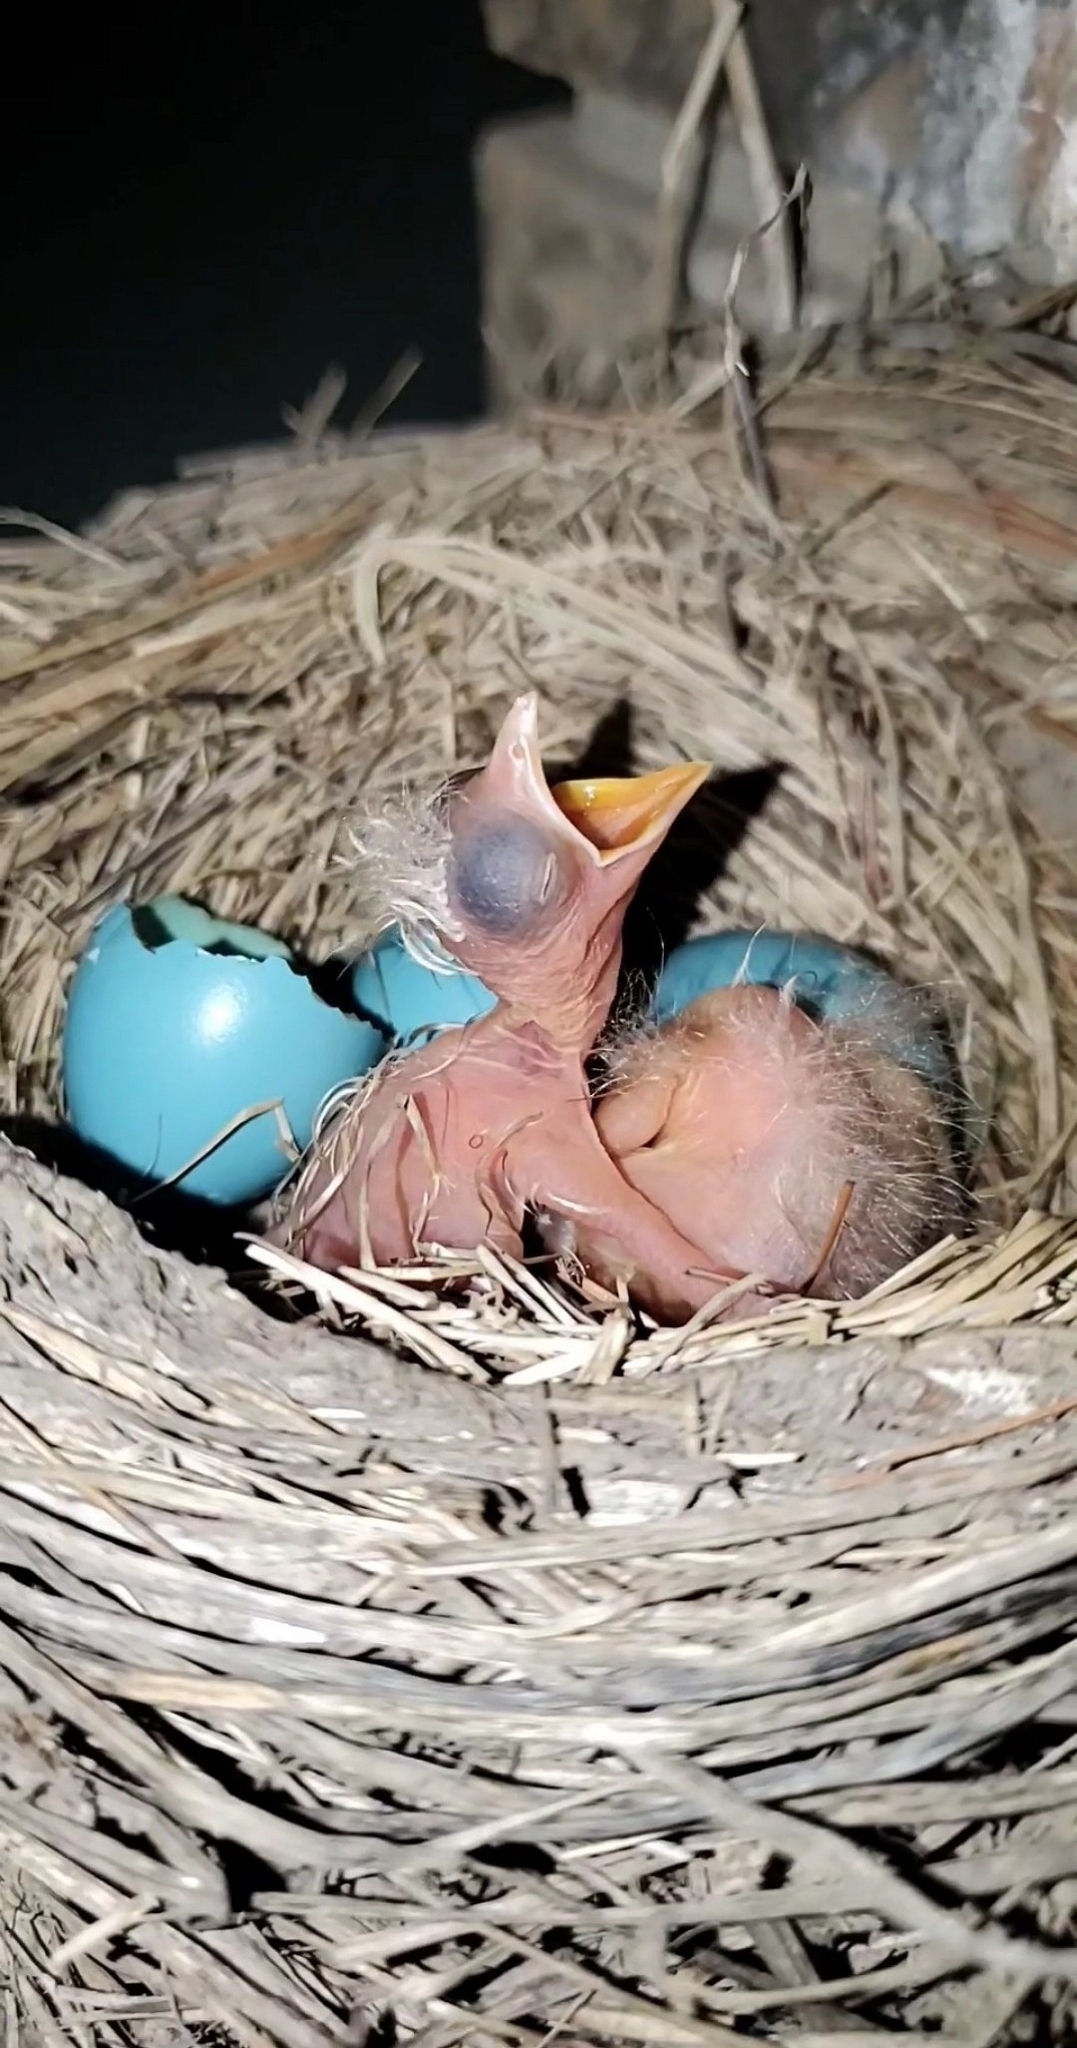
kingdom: Animalia
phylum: Chordata
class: Aves
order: Passeriformes
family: Turdidae
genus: Turdus
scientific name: Turdus migratorius
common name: American robin
